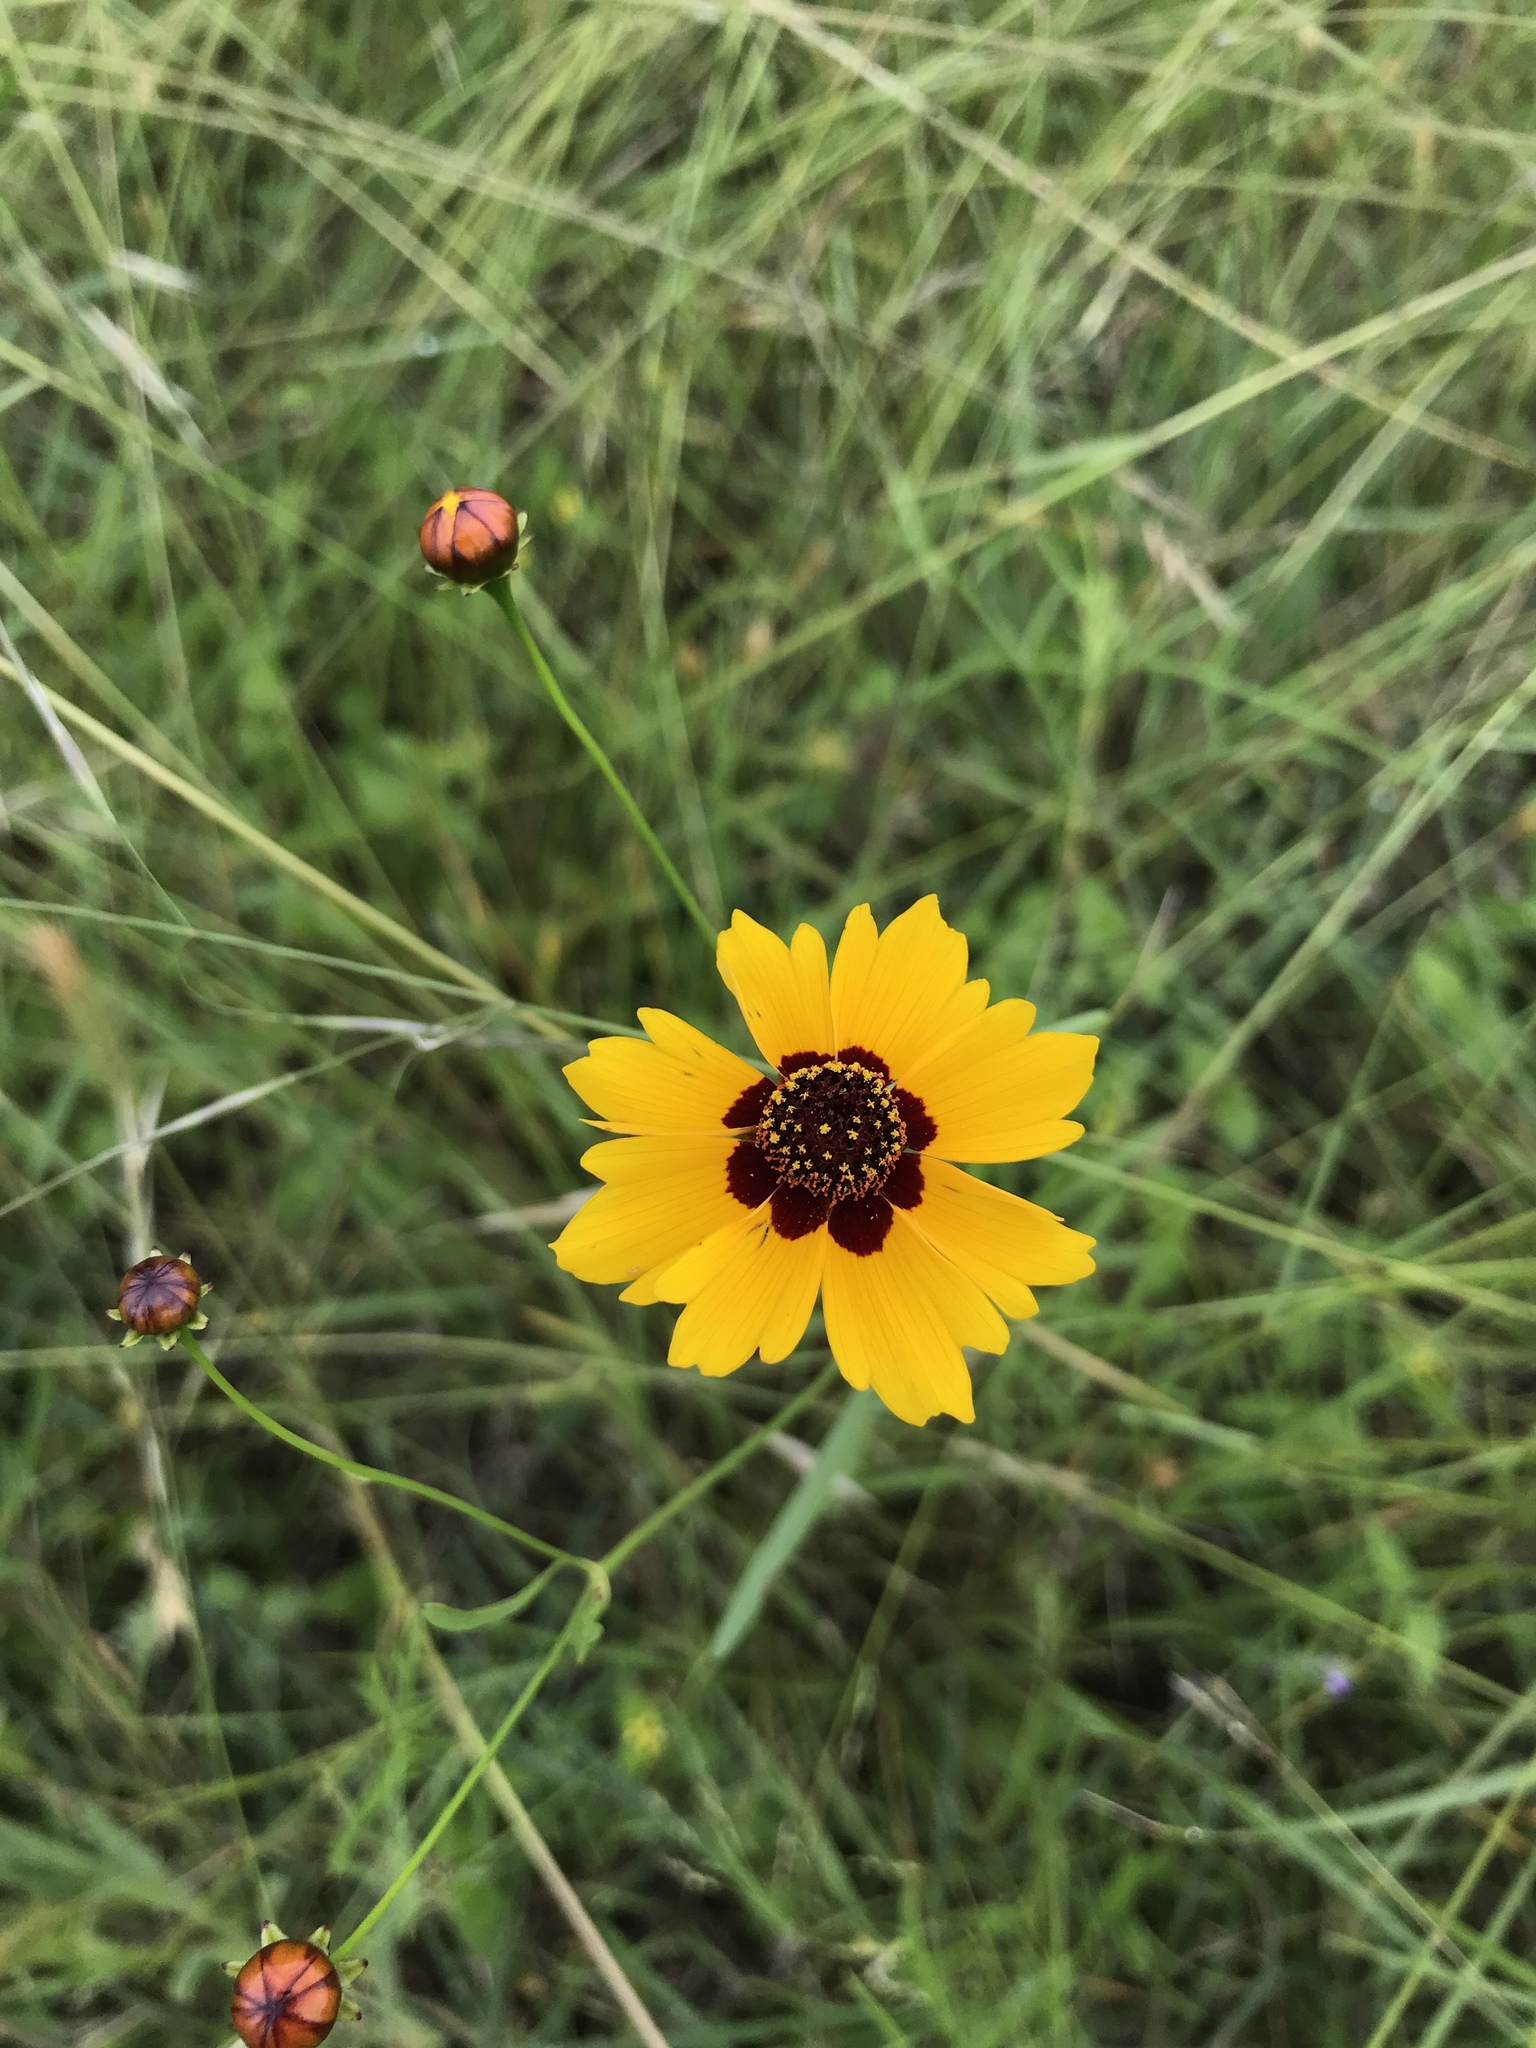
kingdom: Plantae
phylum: Tracheophyta
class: Magnoliopsida
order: Asterales
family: Asteraceae
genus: Coreopsis
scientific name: Coreopsis tinctoria
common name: Garden tickseed
